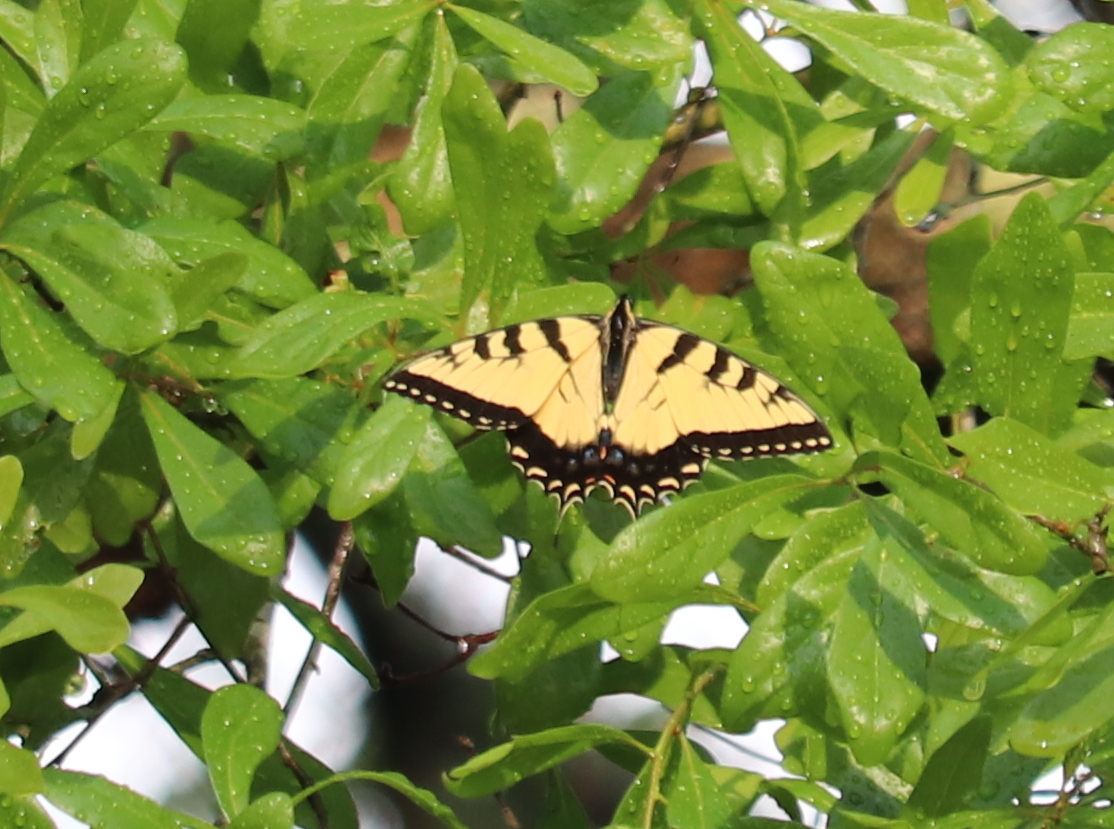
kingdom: Animalia
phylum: Arthropoda
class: Insecta
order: Lepidoptera
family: Papilionidae
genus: Papilio
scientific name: Papilio glaucus
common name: Tiger swallowtail
